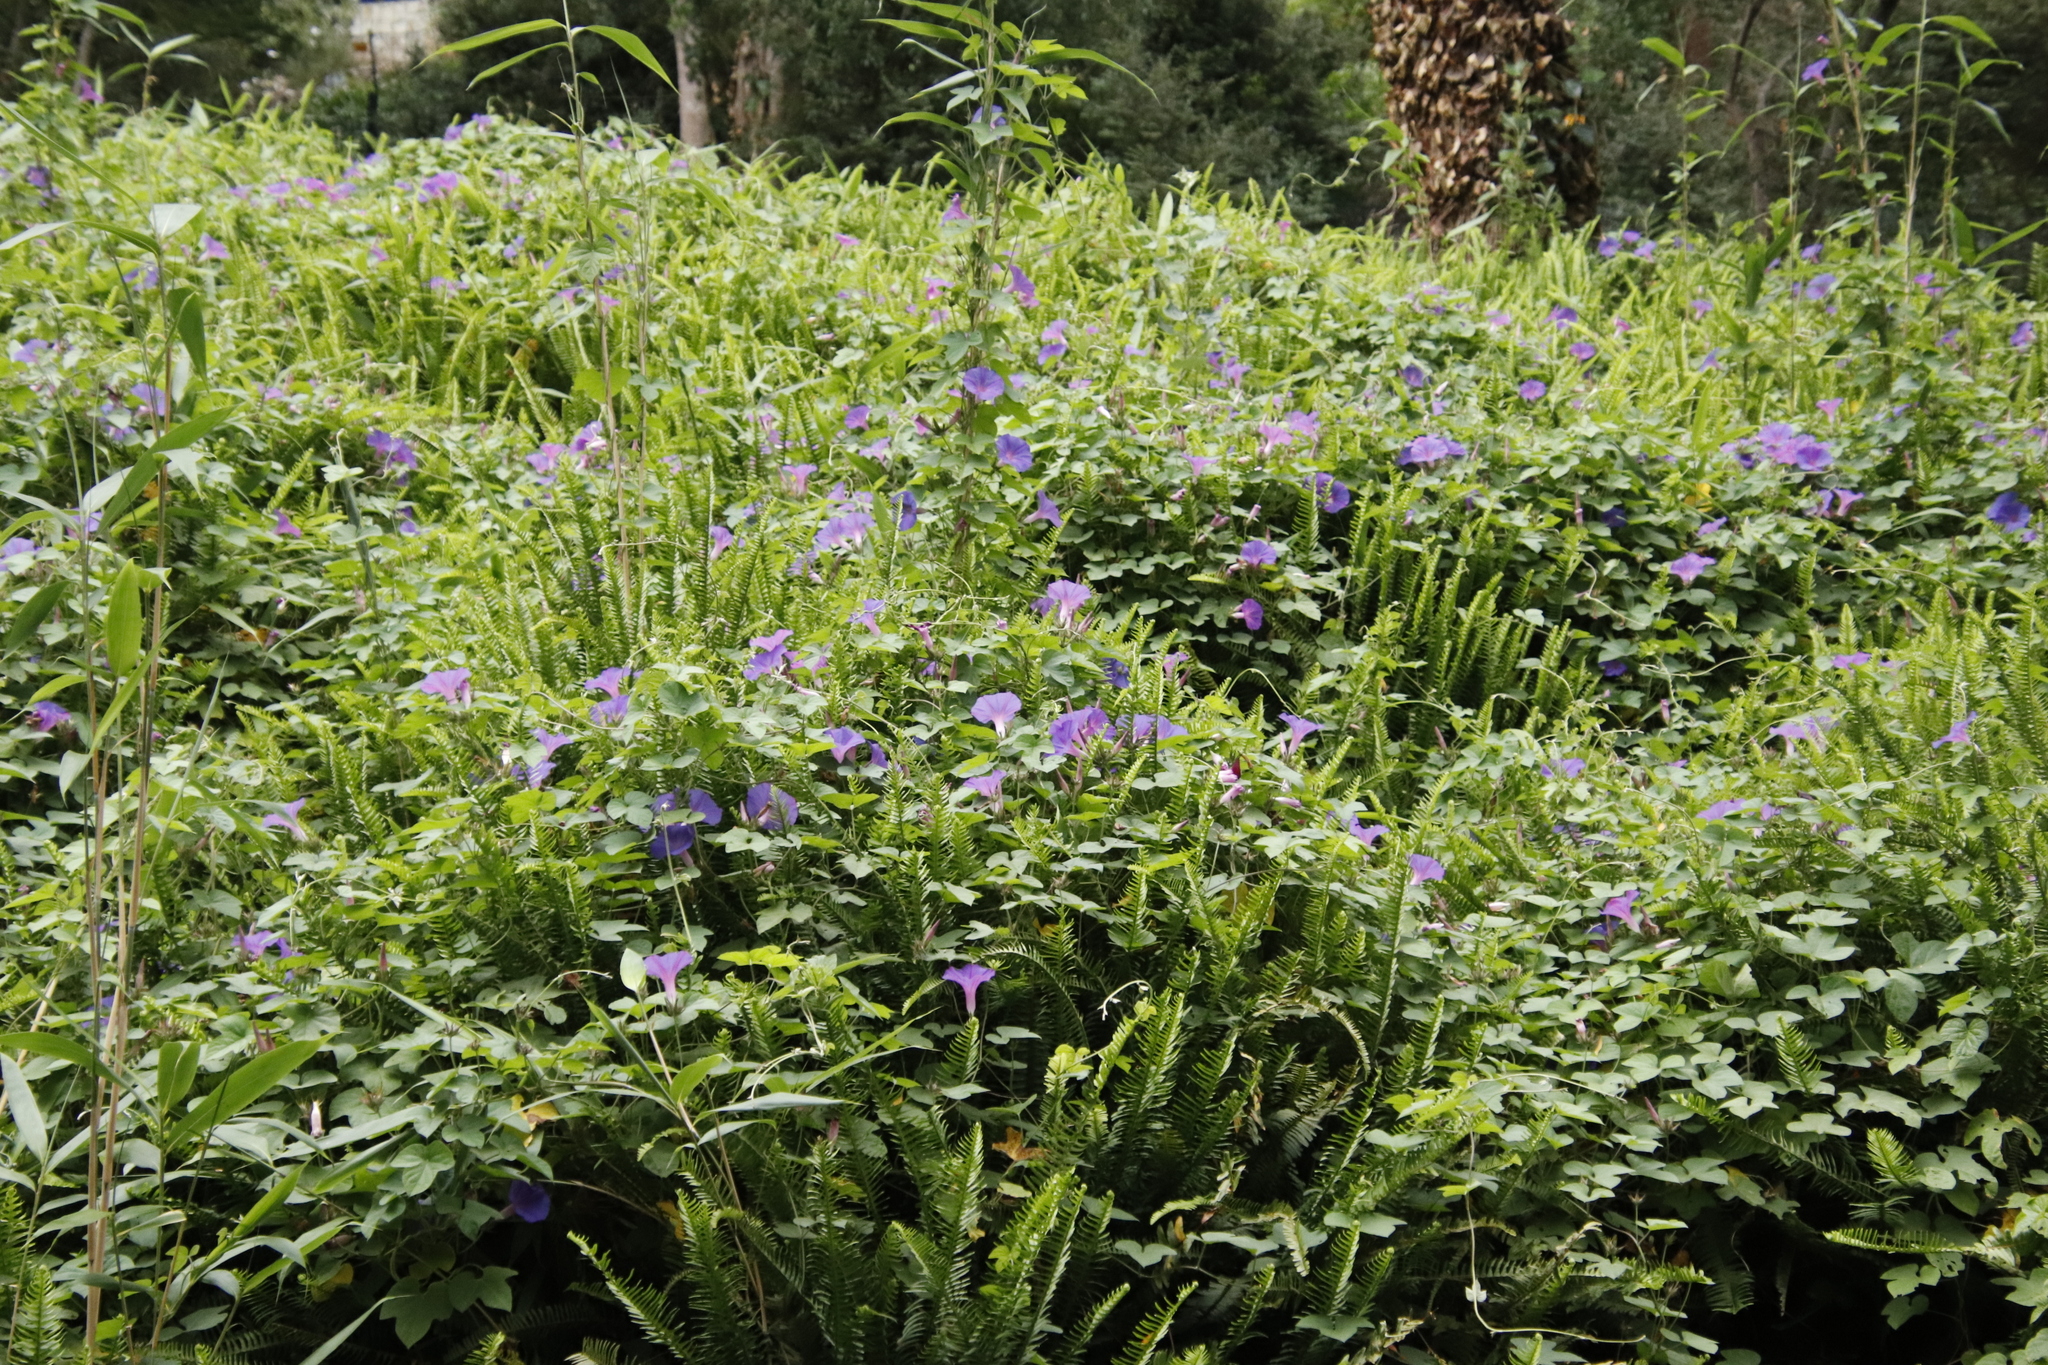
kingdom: Plantae
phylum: Tracheophyta
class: Magnoliopsida
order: Solanales
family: Convolvulaceae
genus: Ipomoea
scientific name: Ipomoea indica
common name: Blue dawnflower
